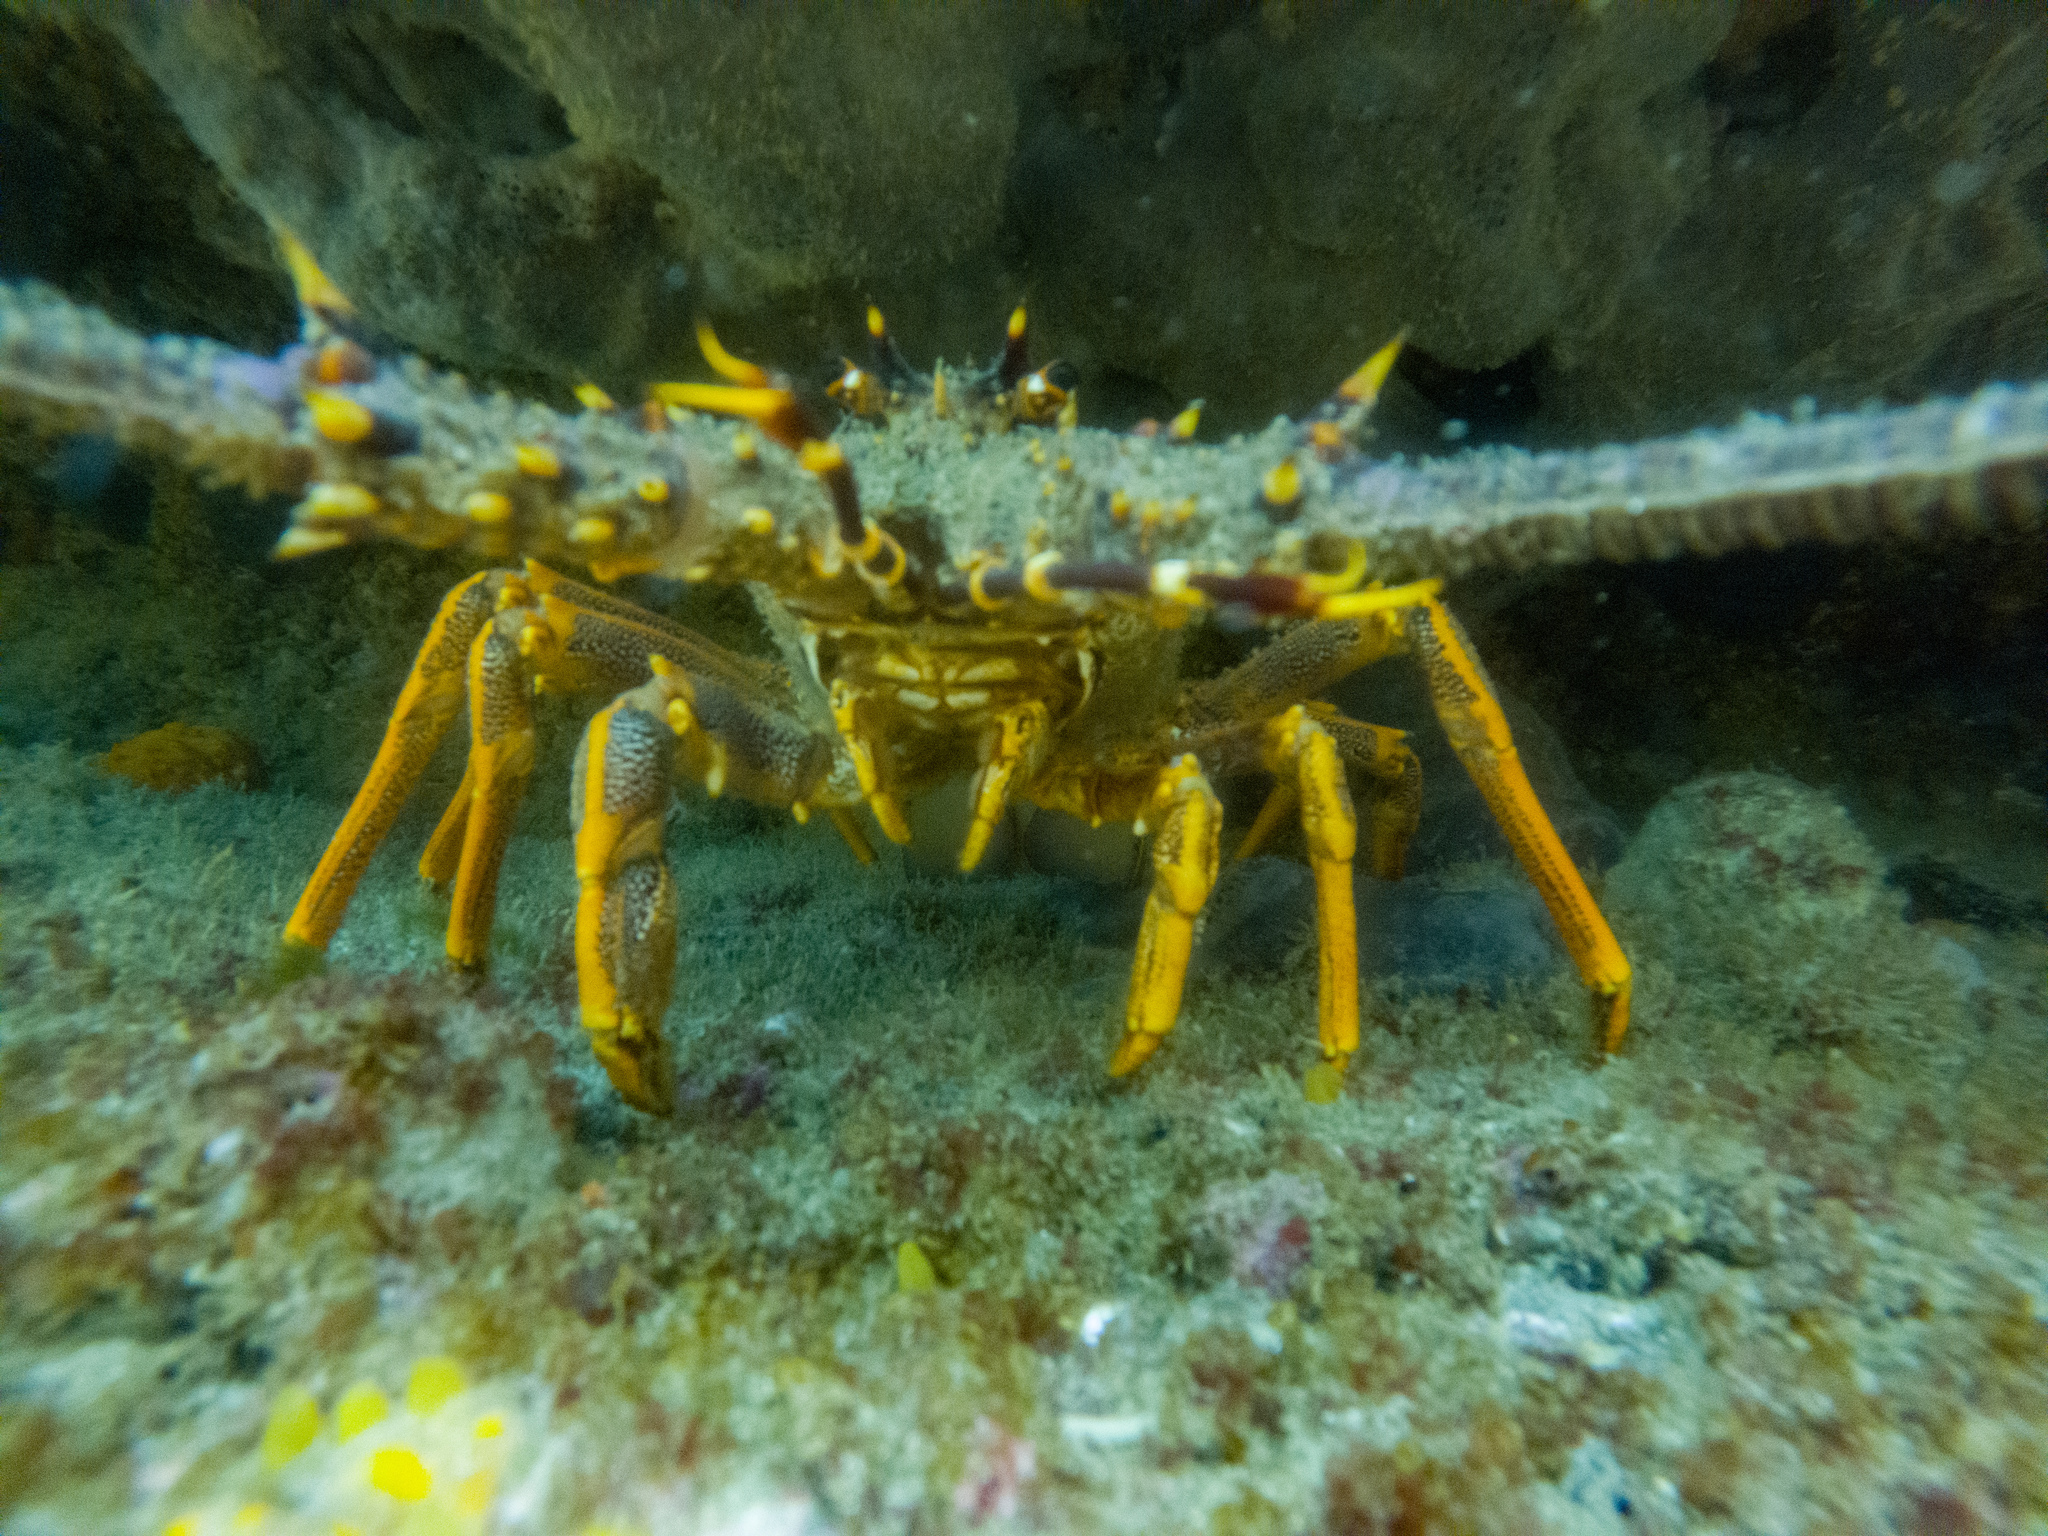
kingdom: Animalia
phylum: Arthropoda
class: Malacostraca
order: Decapoda
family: Palinuridae
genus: Jasus
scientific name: Jasus edwardsii
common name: Red rock lobster
